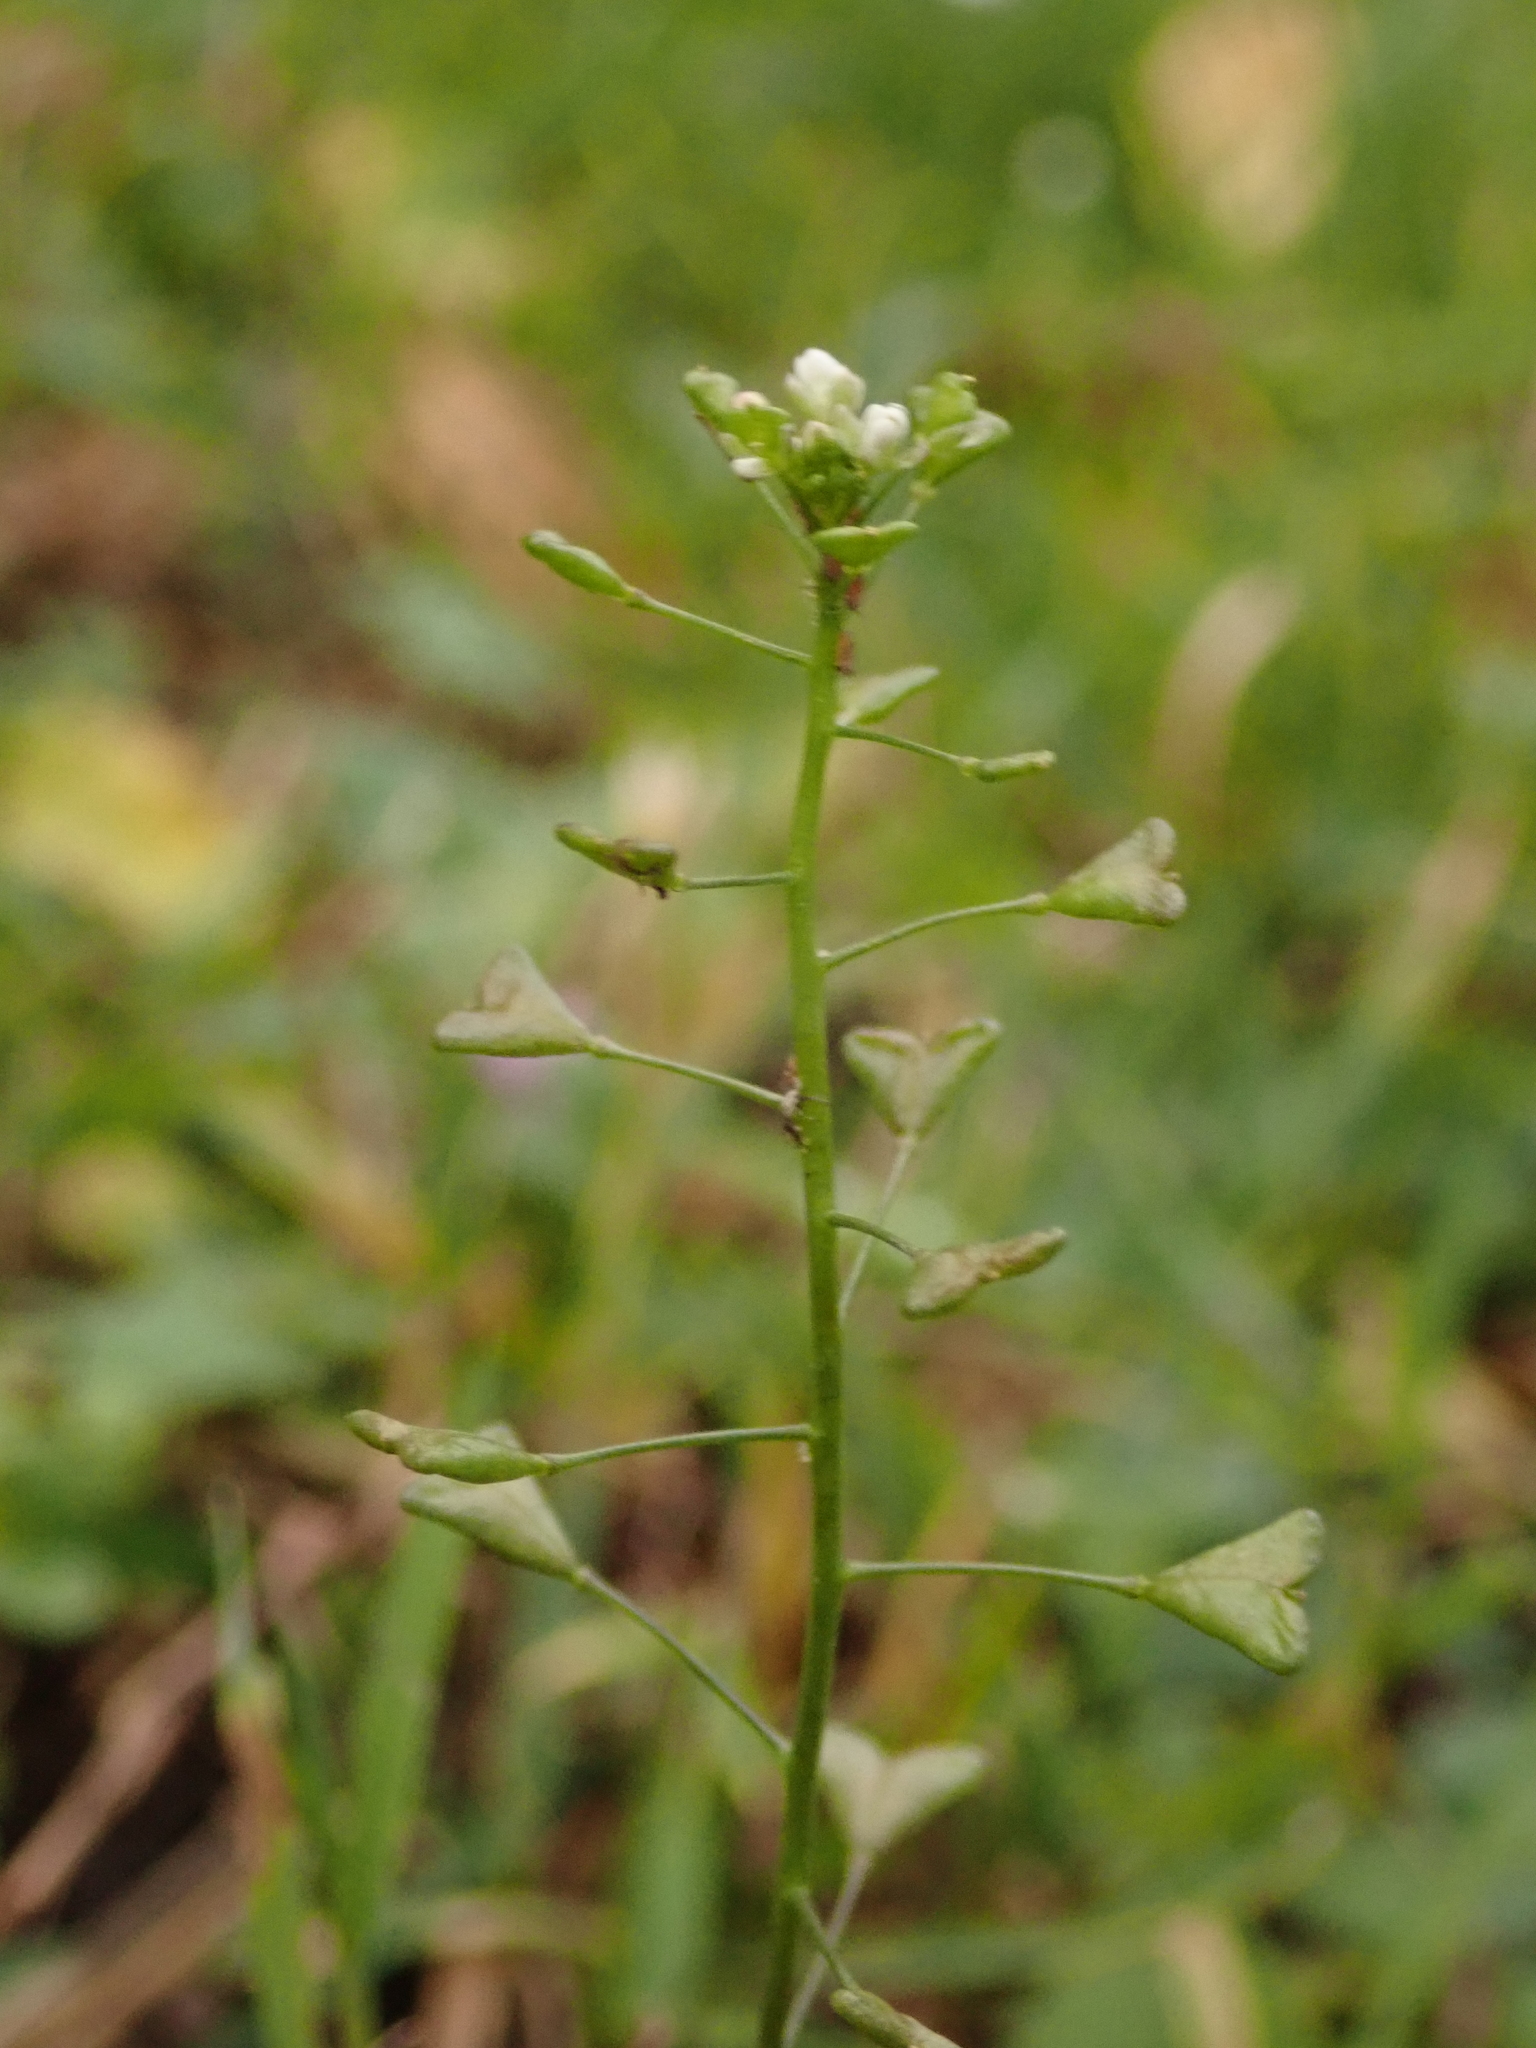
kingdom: Plantae
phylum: Tracheophyta
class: Magnoliopsida
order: Brassicales
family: Brassicaceae
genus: Capsella
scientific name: Capsella bursa-pastoris
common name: Shepherd's purse
